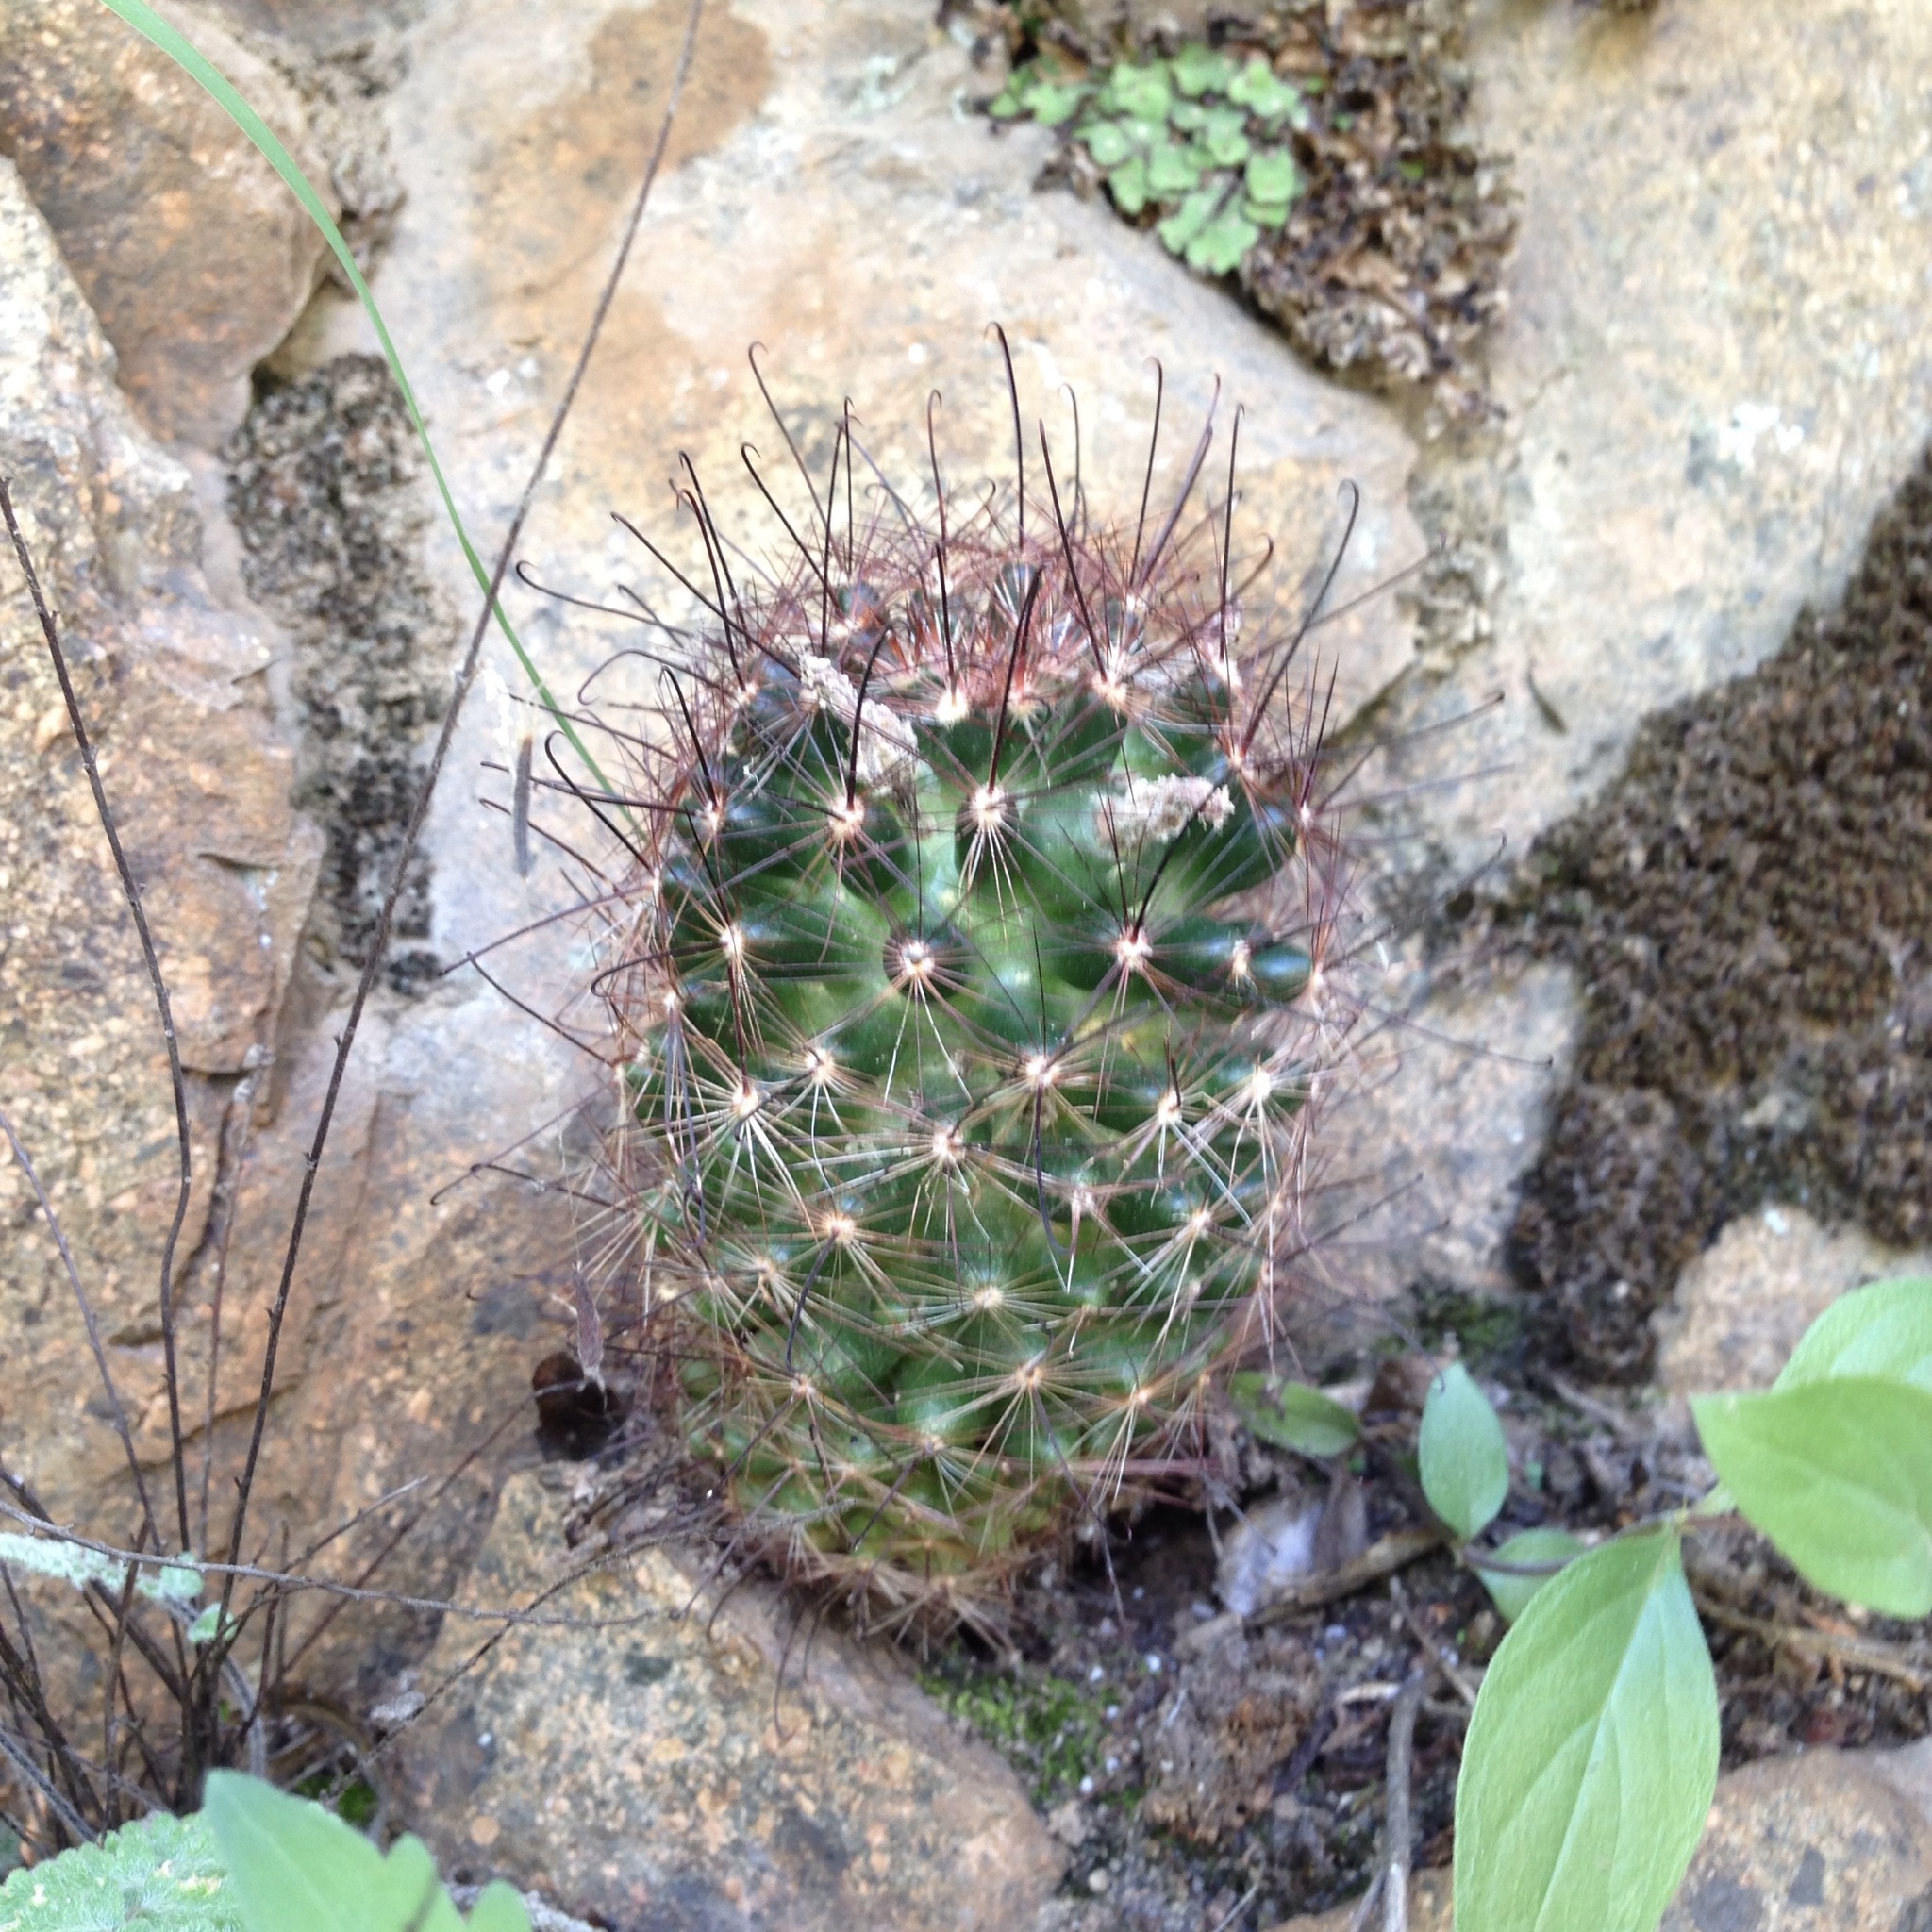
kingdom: Plantae
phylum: Tracheophyta
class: Magnoliopsida
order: Caryophyllales
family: Cactaceae
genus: Cochemiea
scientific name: Cochemiea wrightii
